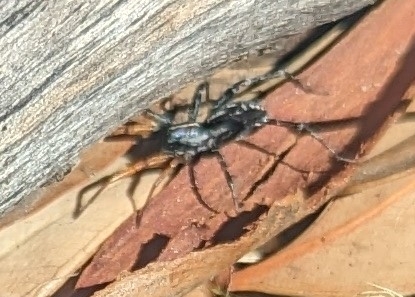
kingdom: Animalia
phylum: Arthropoda
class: Arachnida
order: Araneae
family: Corinnidae
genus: Nyssus
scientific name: Nyssus coloripes
